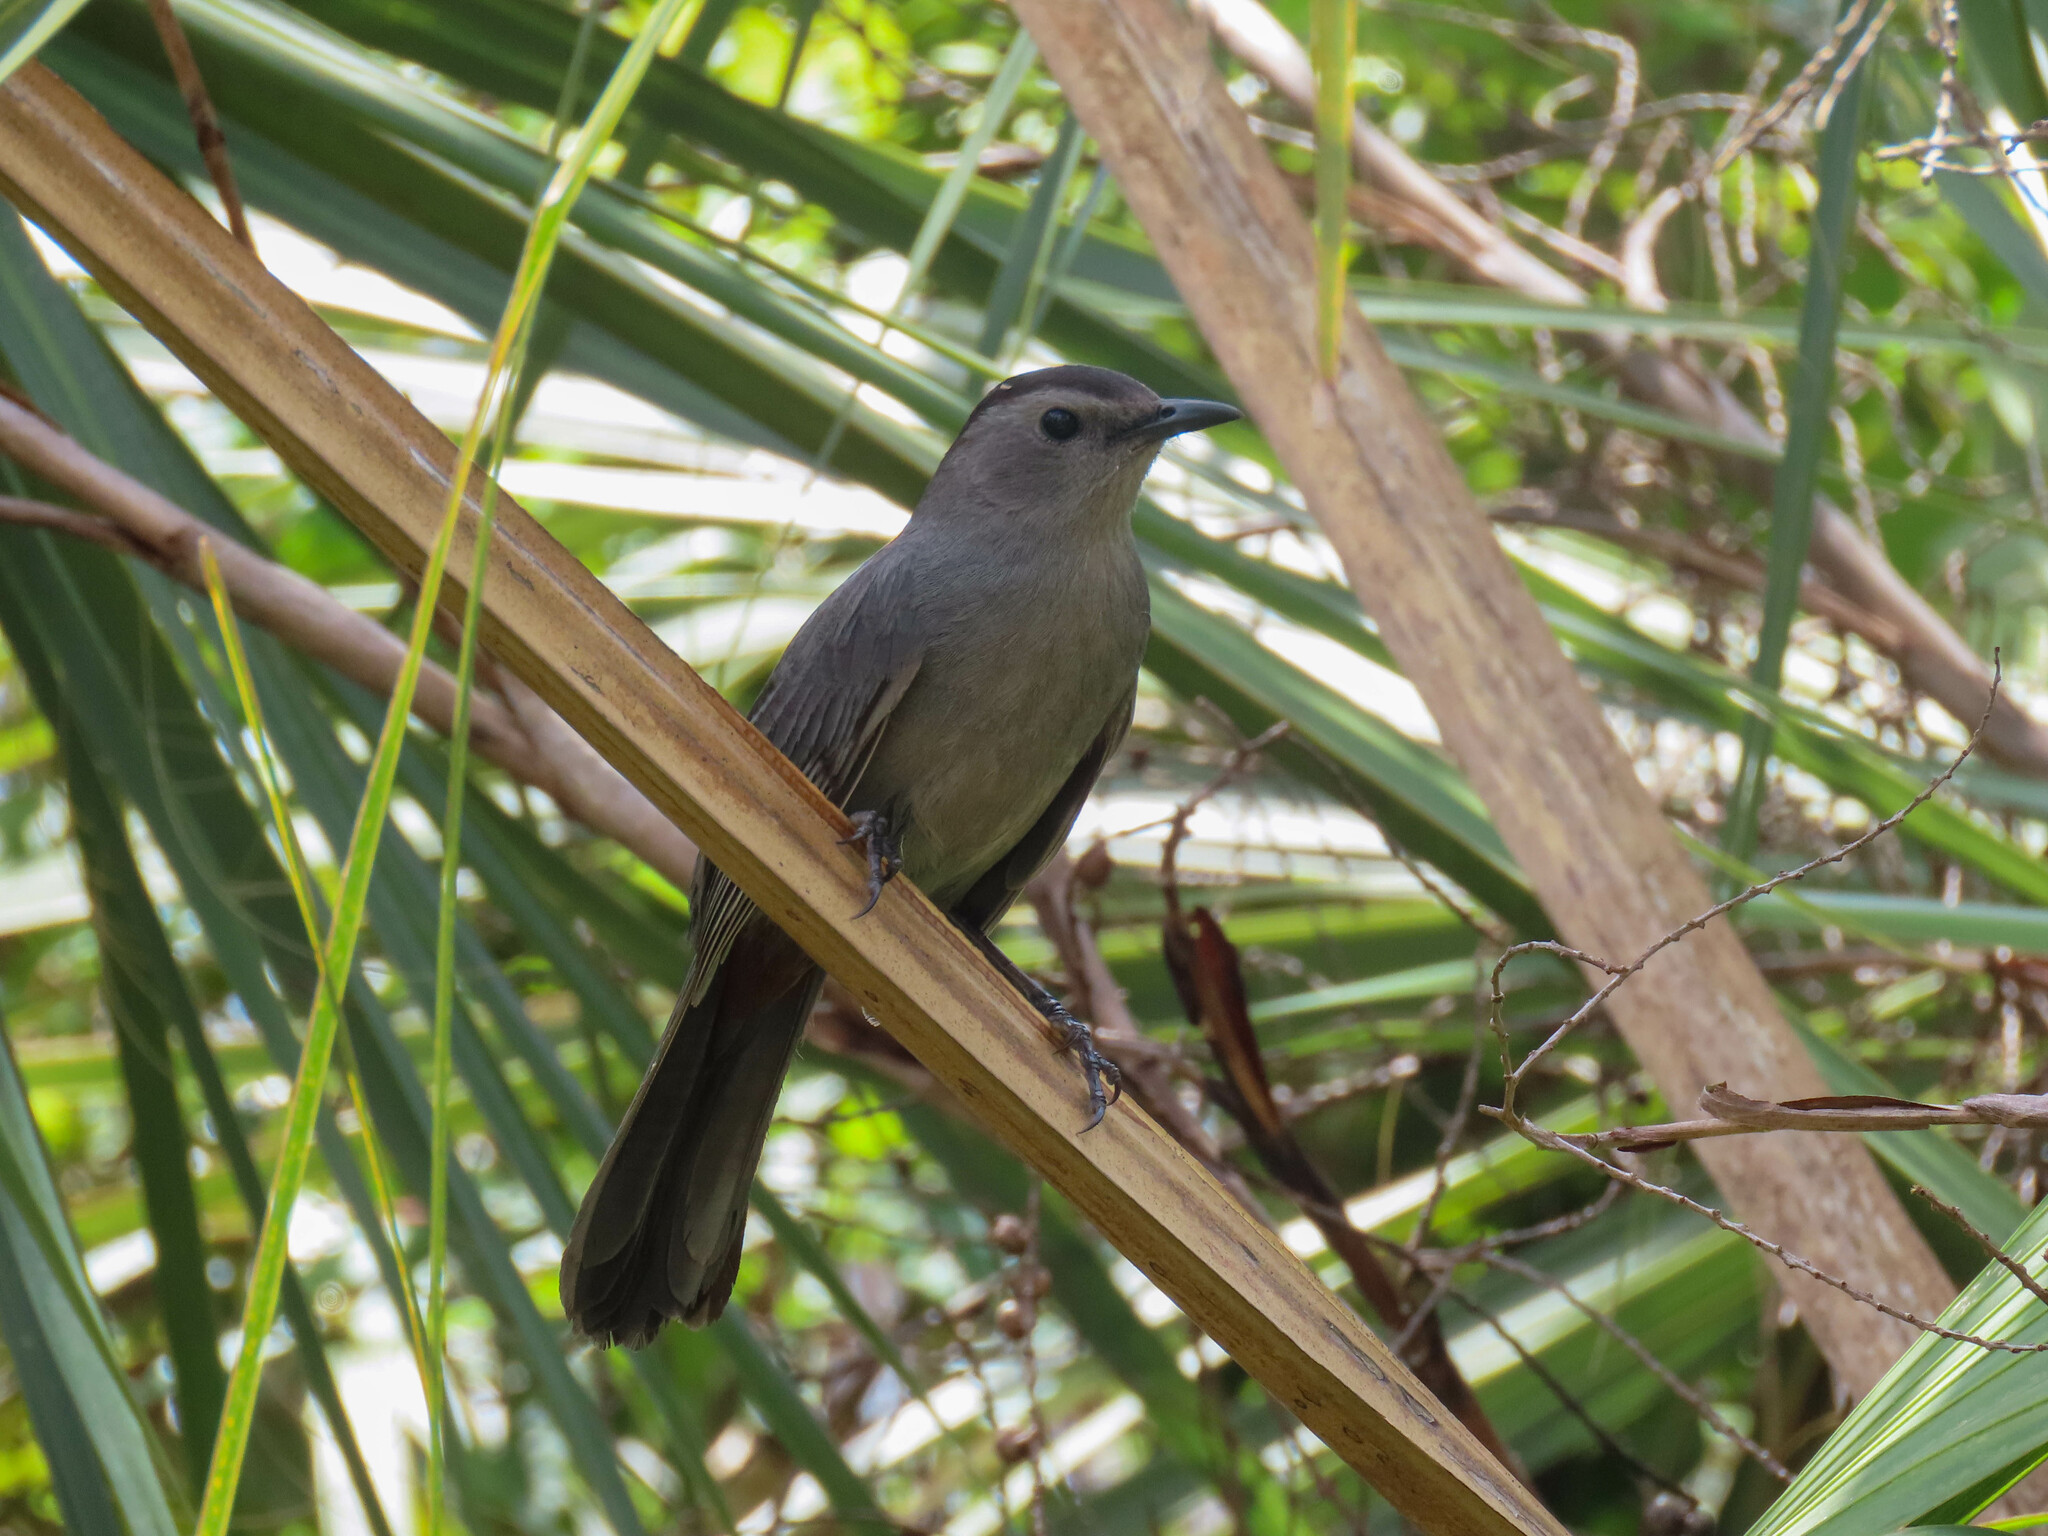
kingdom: Animalia
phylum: Chordata
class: Aves
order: Passeriformes
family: Mimidae
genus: Dumetella
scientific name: Dumetella carolinensis
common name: Gray catbird
